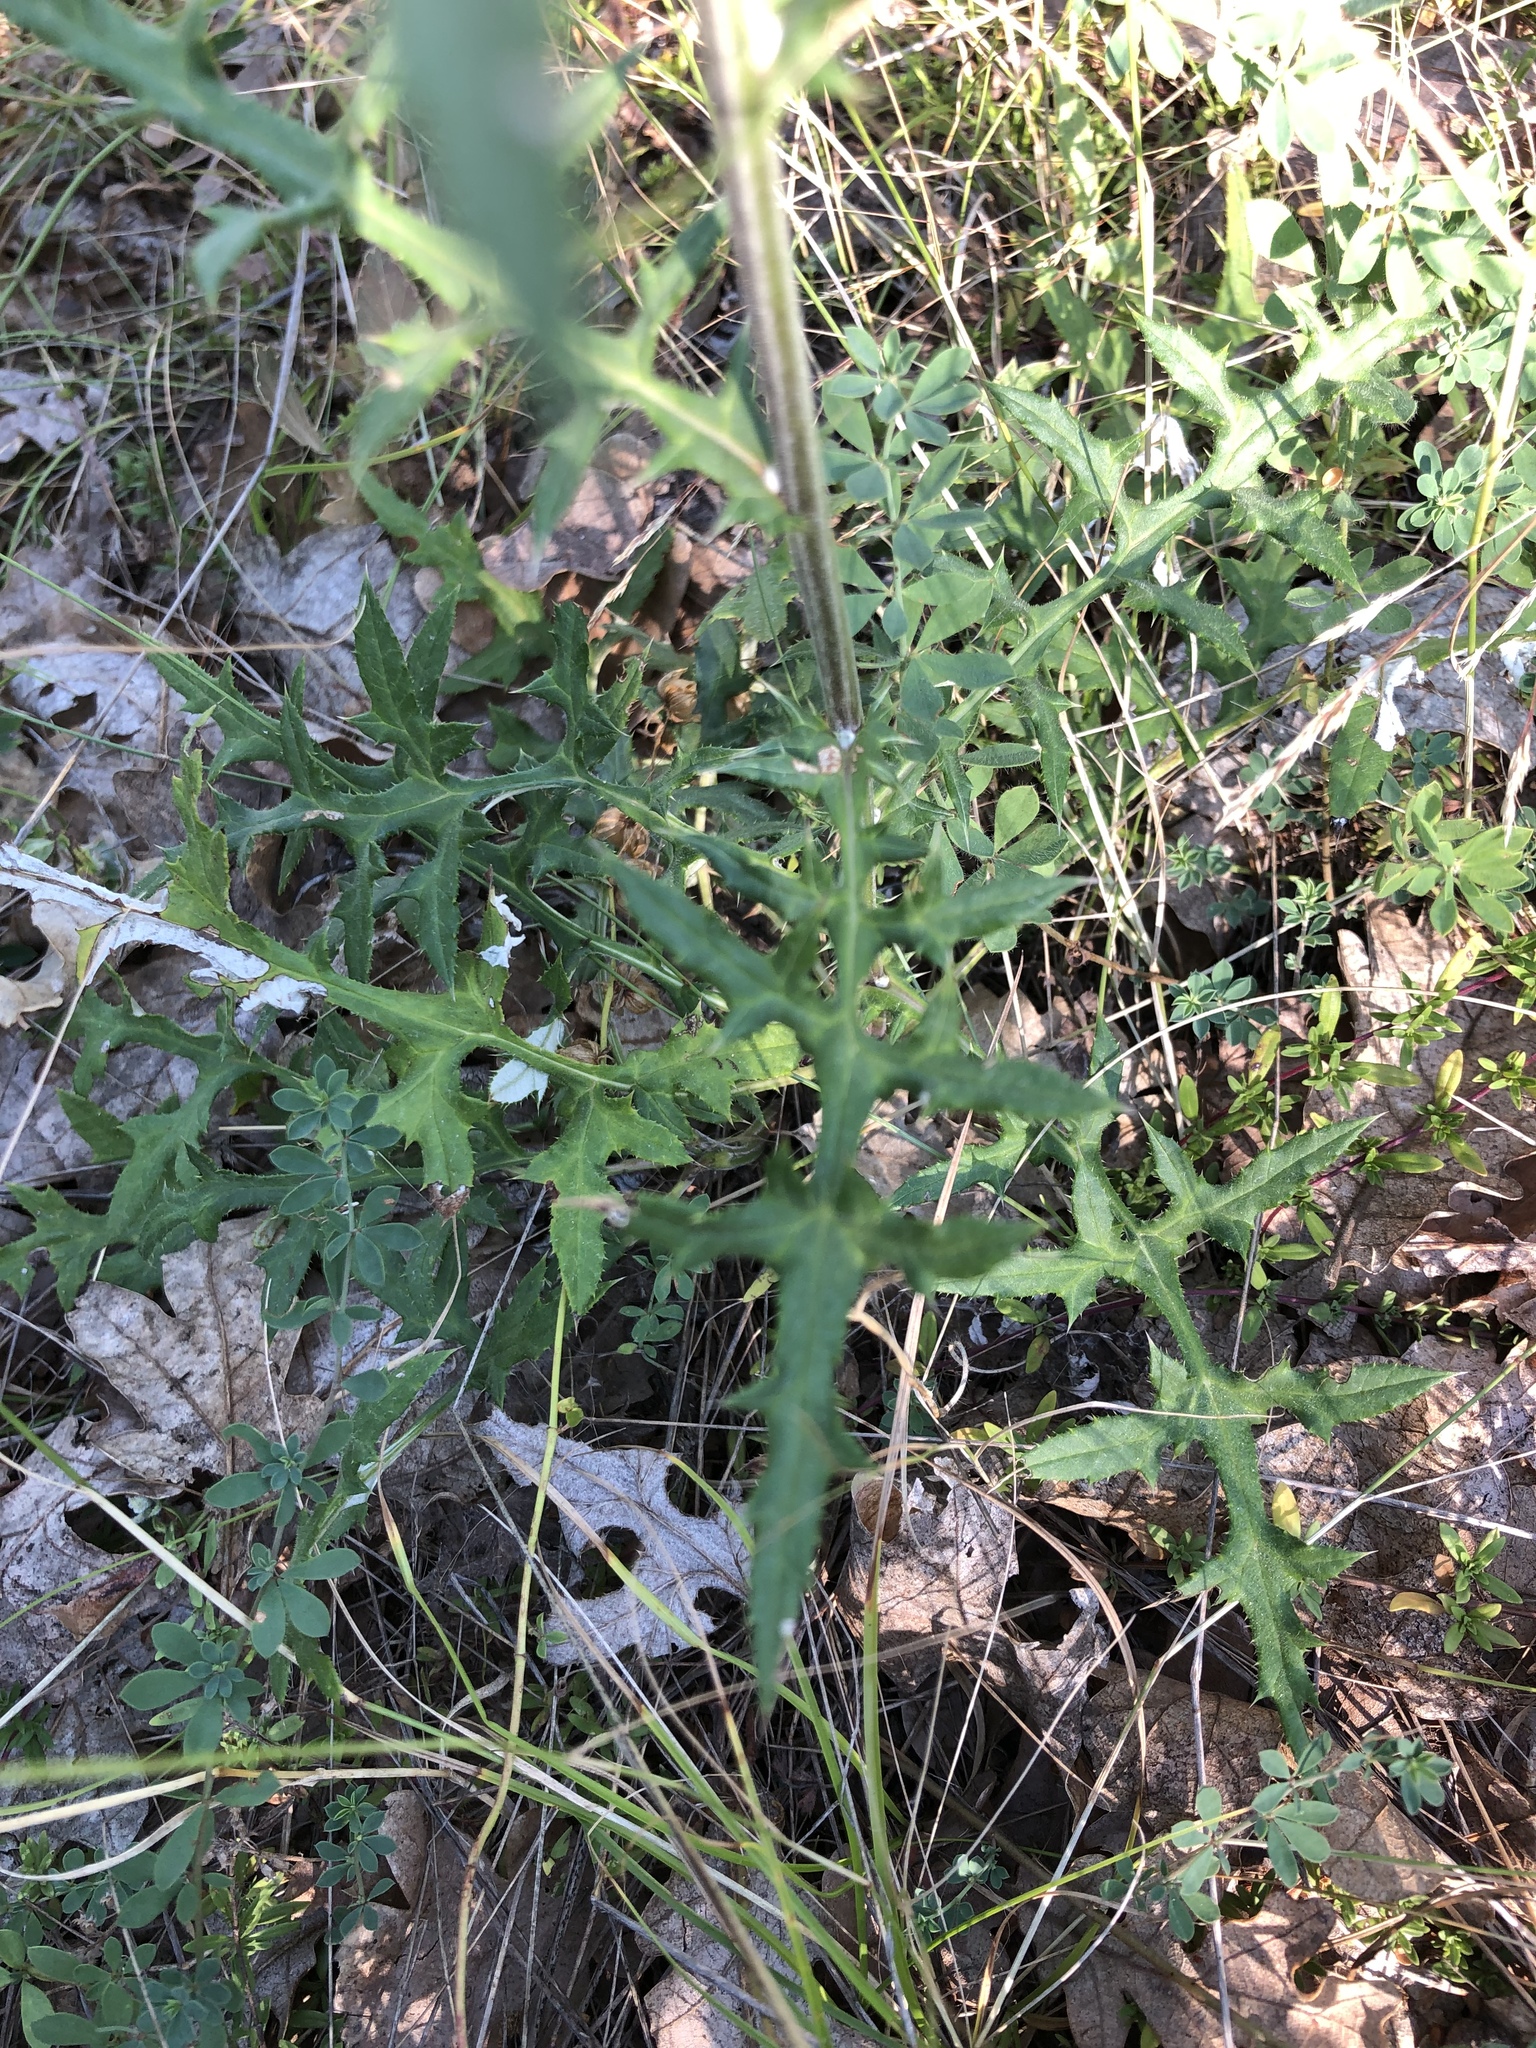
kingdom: Plantae
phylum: Tracheophyta
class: Magnoliopsida
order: Asterales
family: Asteraceae
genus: Echinops
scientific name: Echinops bannaticus
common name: Blue globe-thistle
